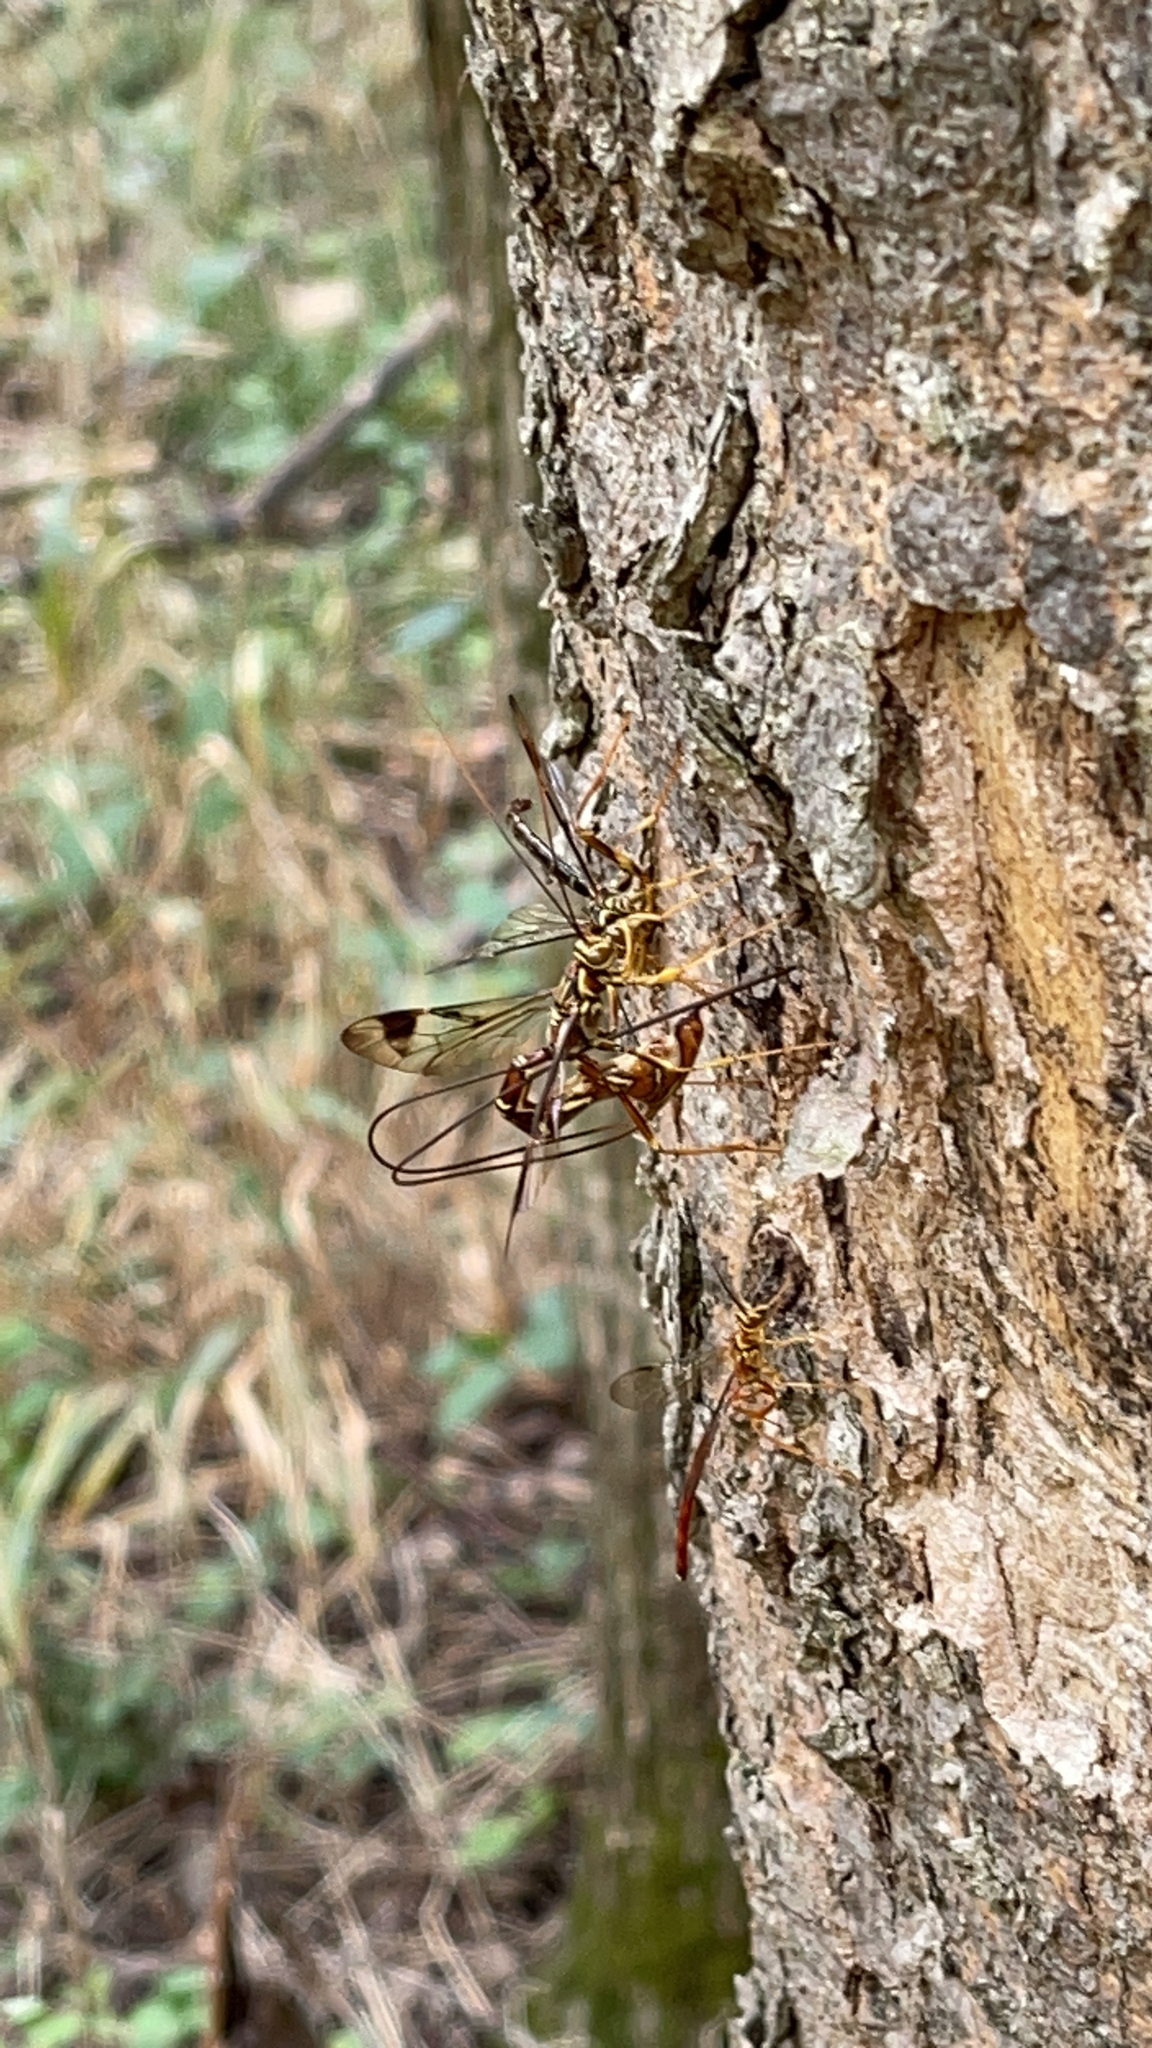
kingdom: Animalia
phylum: Arthropoda
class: Insecta
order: Hymenoptera
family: Ichneumonidae
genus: Megarhyssa
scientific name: Megarhyssa macrura
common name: Long-tailed giant ichneumonid wasp
